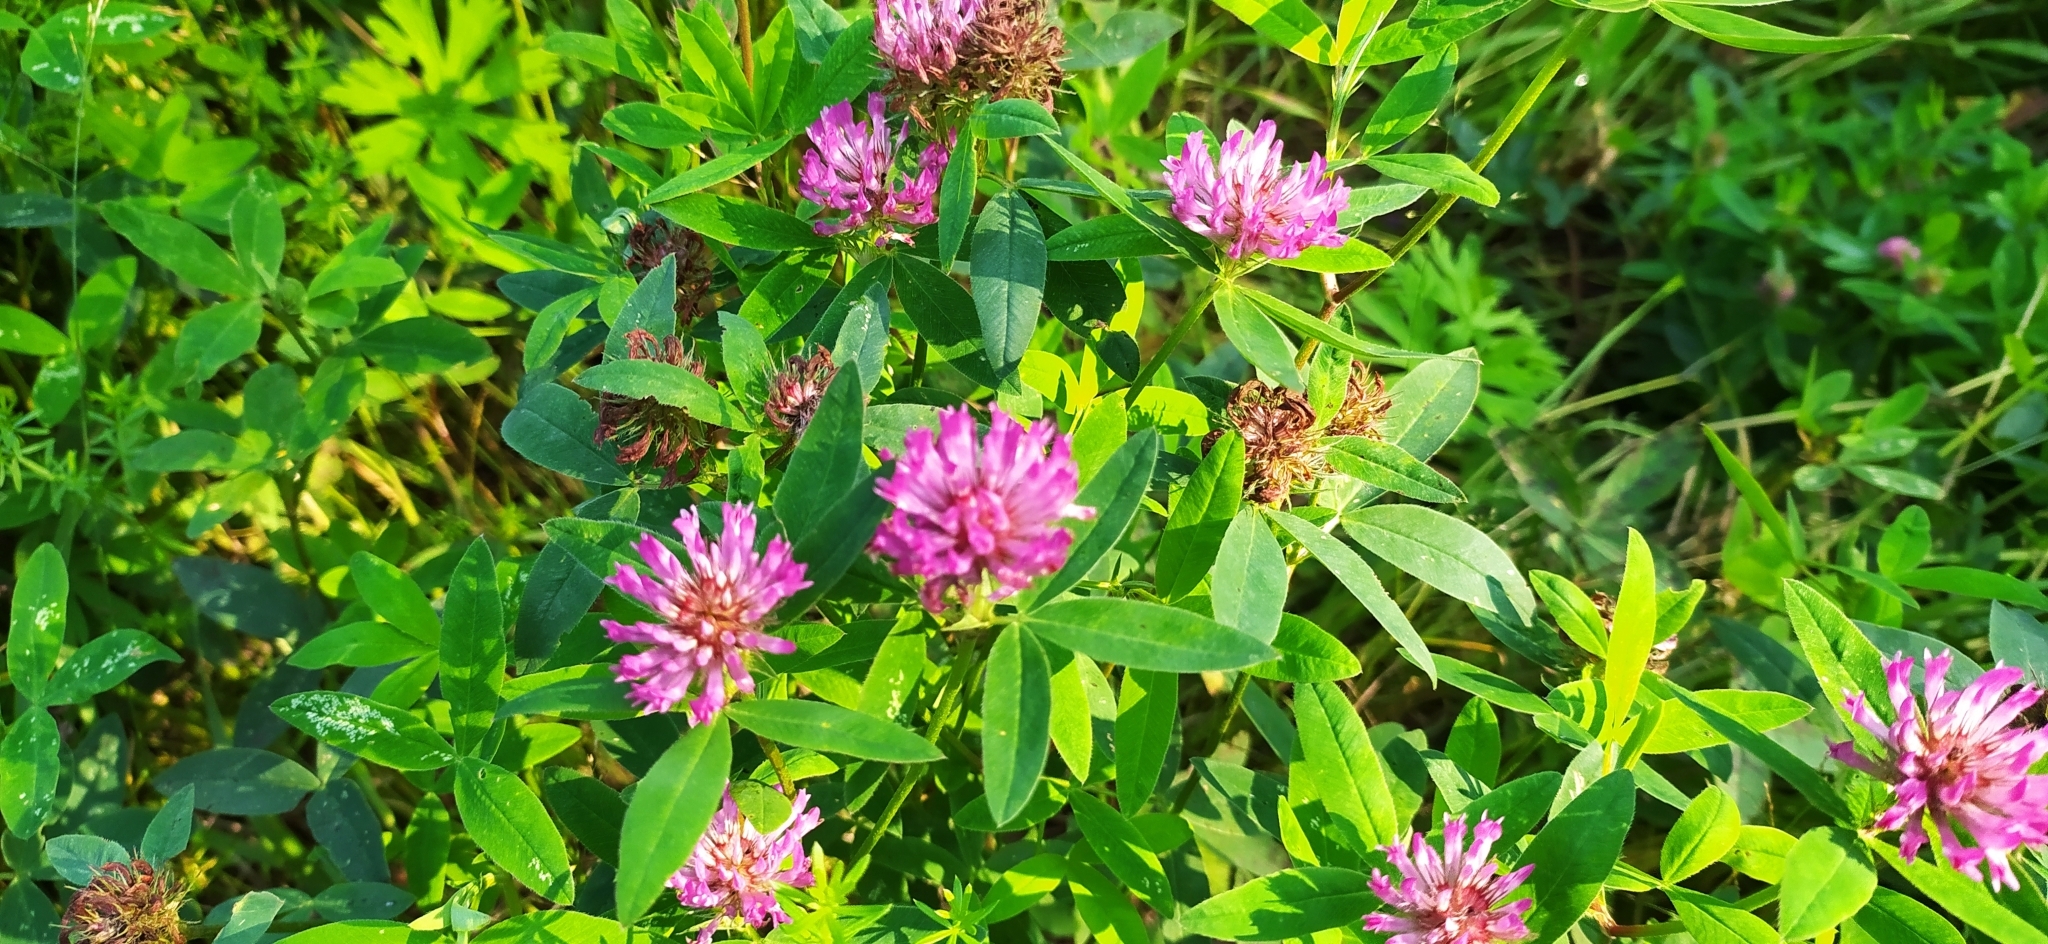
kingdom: Plantae
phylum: Tracheophyta
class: Magnoliopsida
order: Fabales
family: Fabaceae
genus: Trifolium
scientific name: Trifolium medium
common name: Zigzag clover
